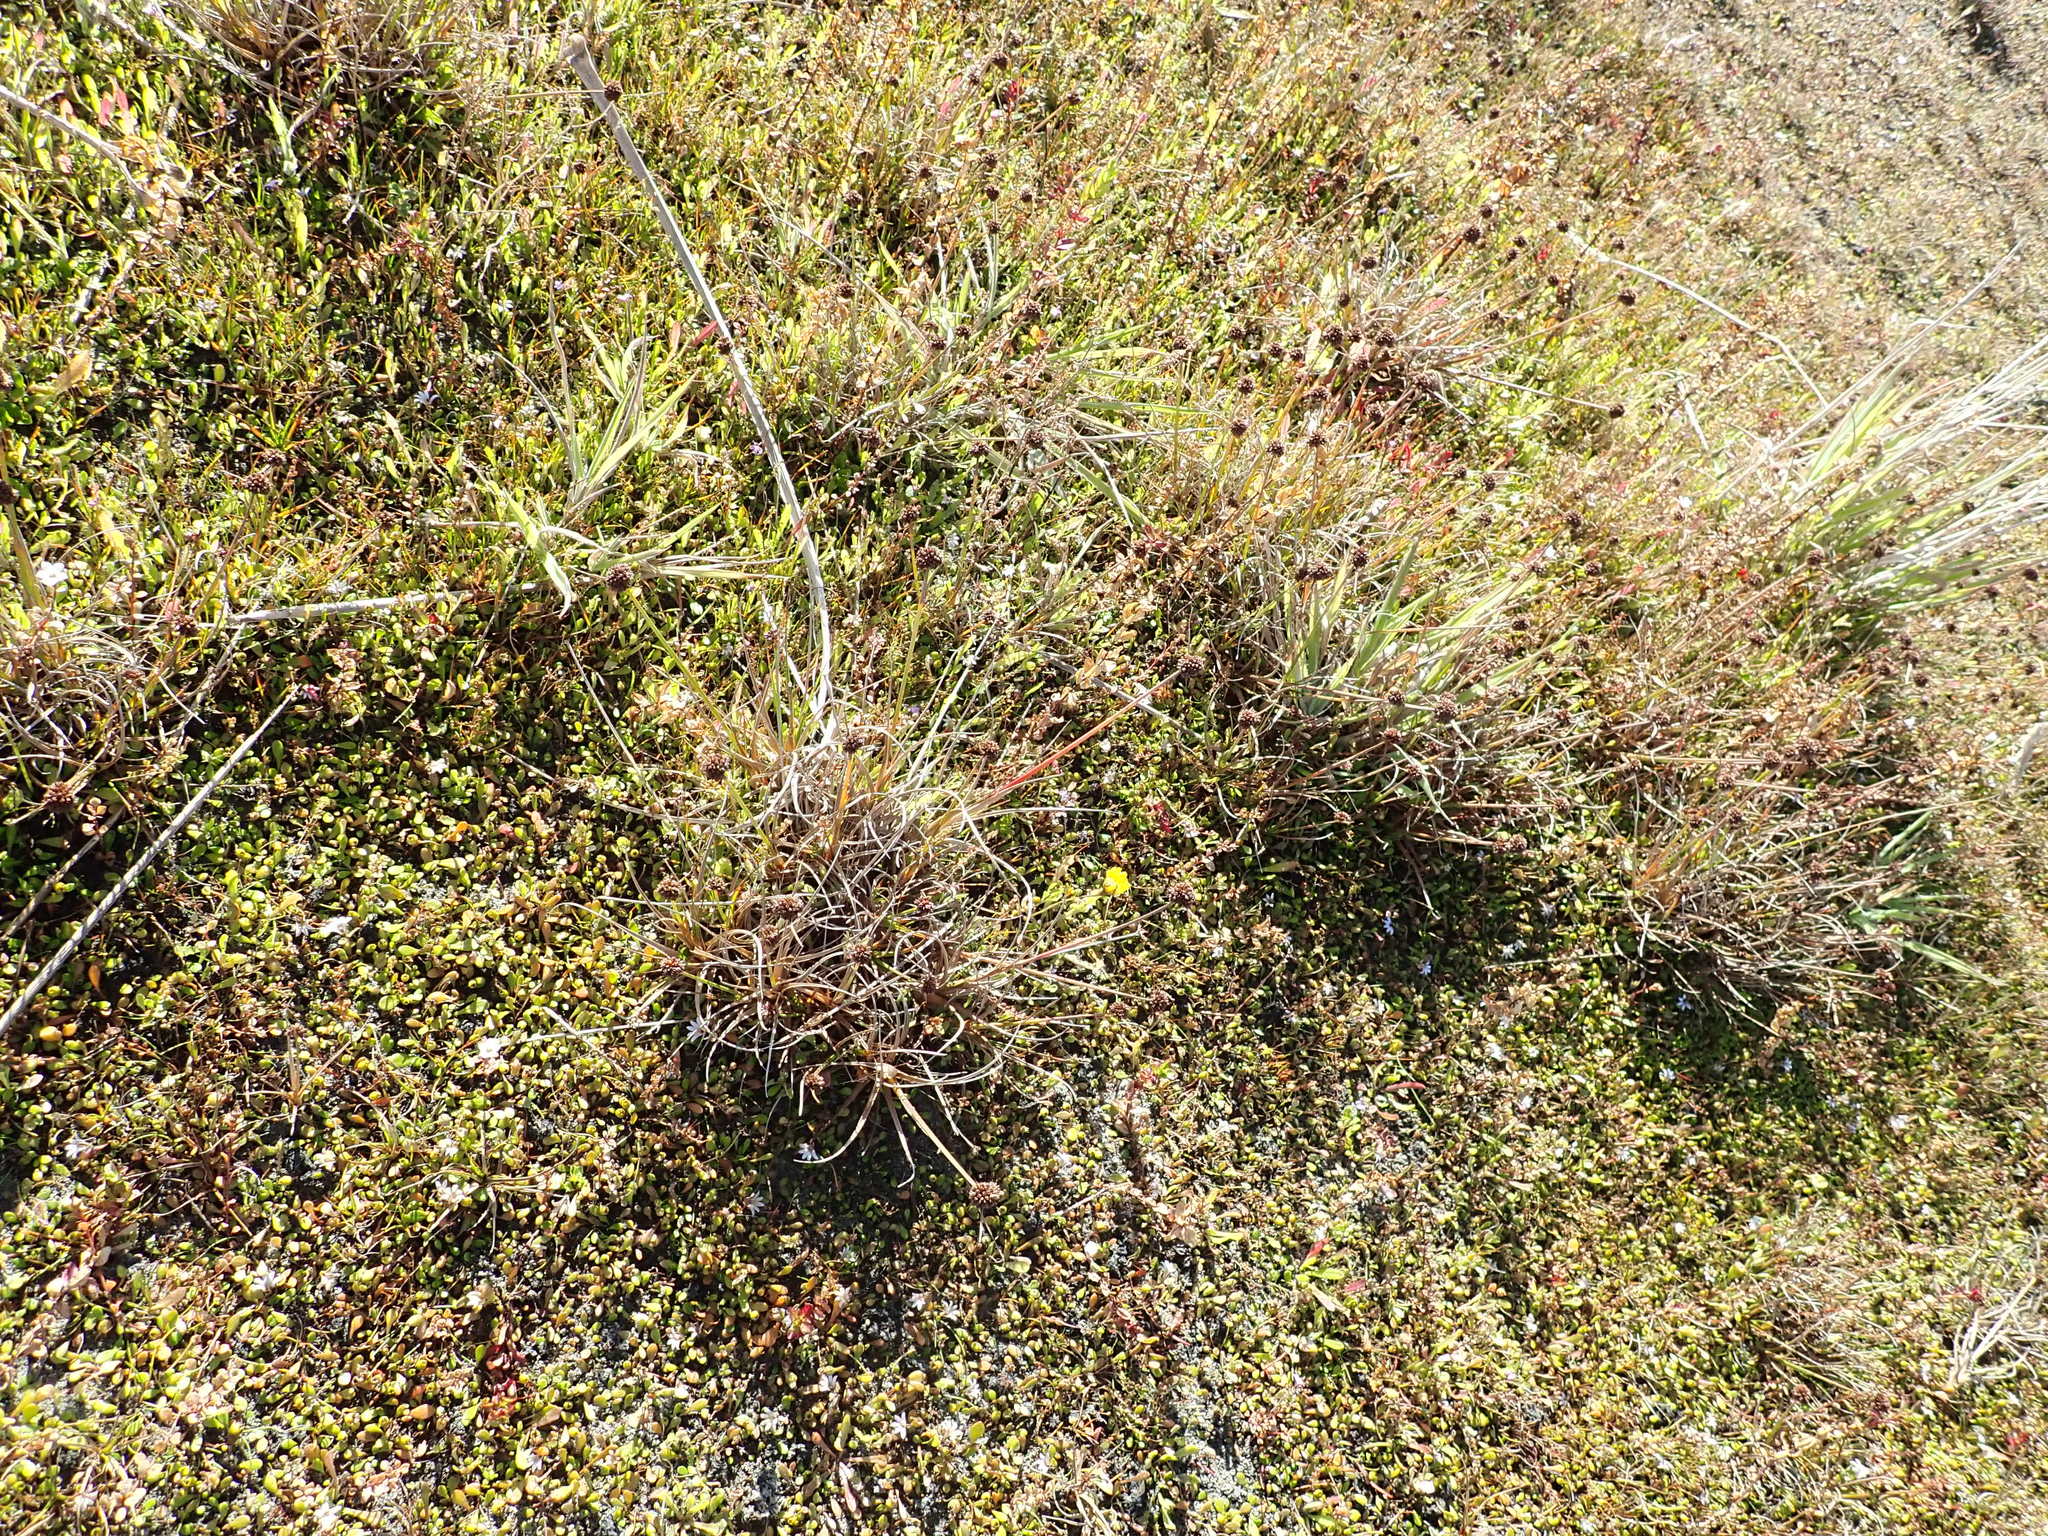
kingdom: Plantae
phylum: Tracheophyta
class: Liliopsida
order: Poales
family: Juncaceae
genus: Juncus
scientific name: Juncus caespiticius
